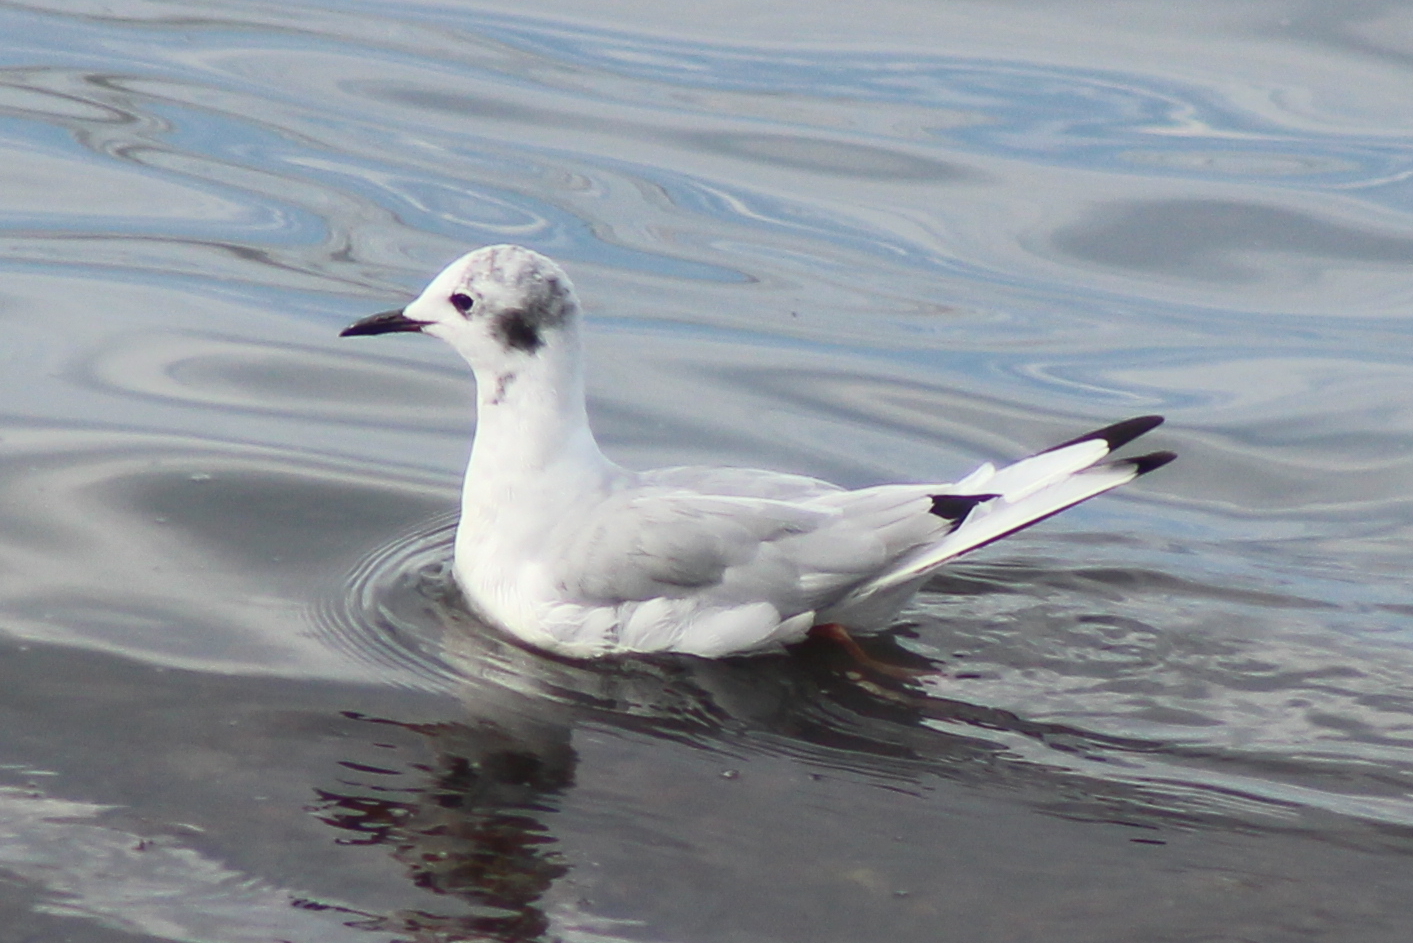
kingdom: Animalia
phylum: Chordata
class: Aves
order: Charadriiformes
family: Laridae
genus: Chroicocephalus
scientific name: Chroicocephalus philadelphia
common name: Bonaparte's gull
